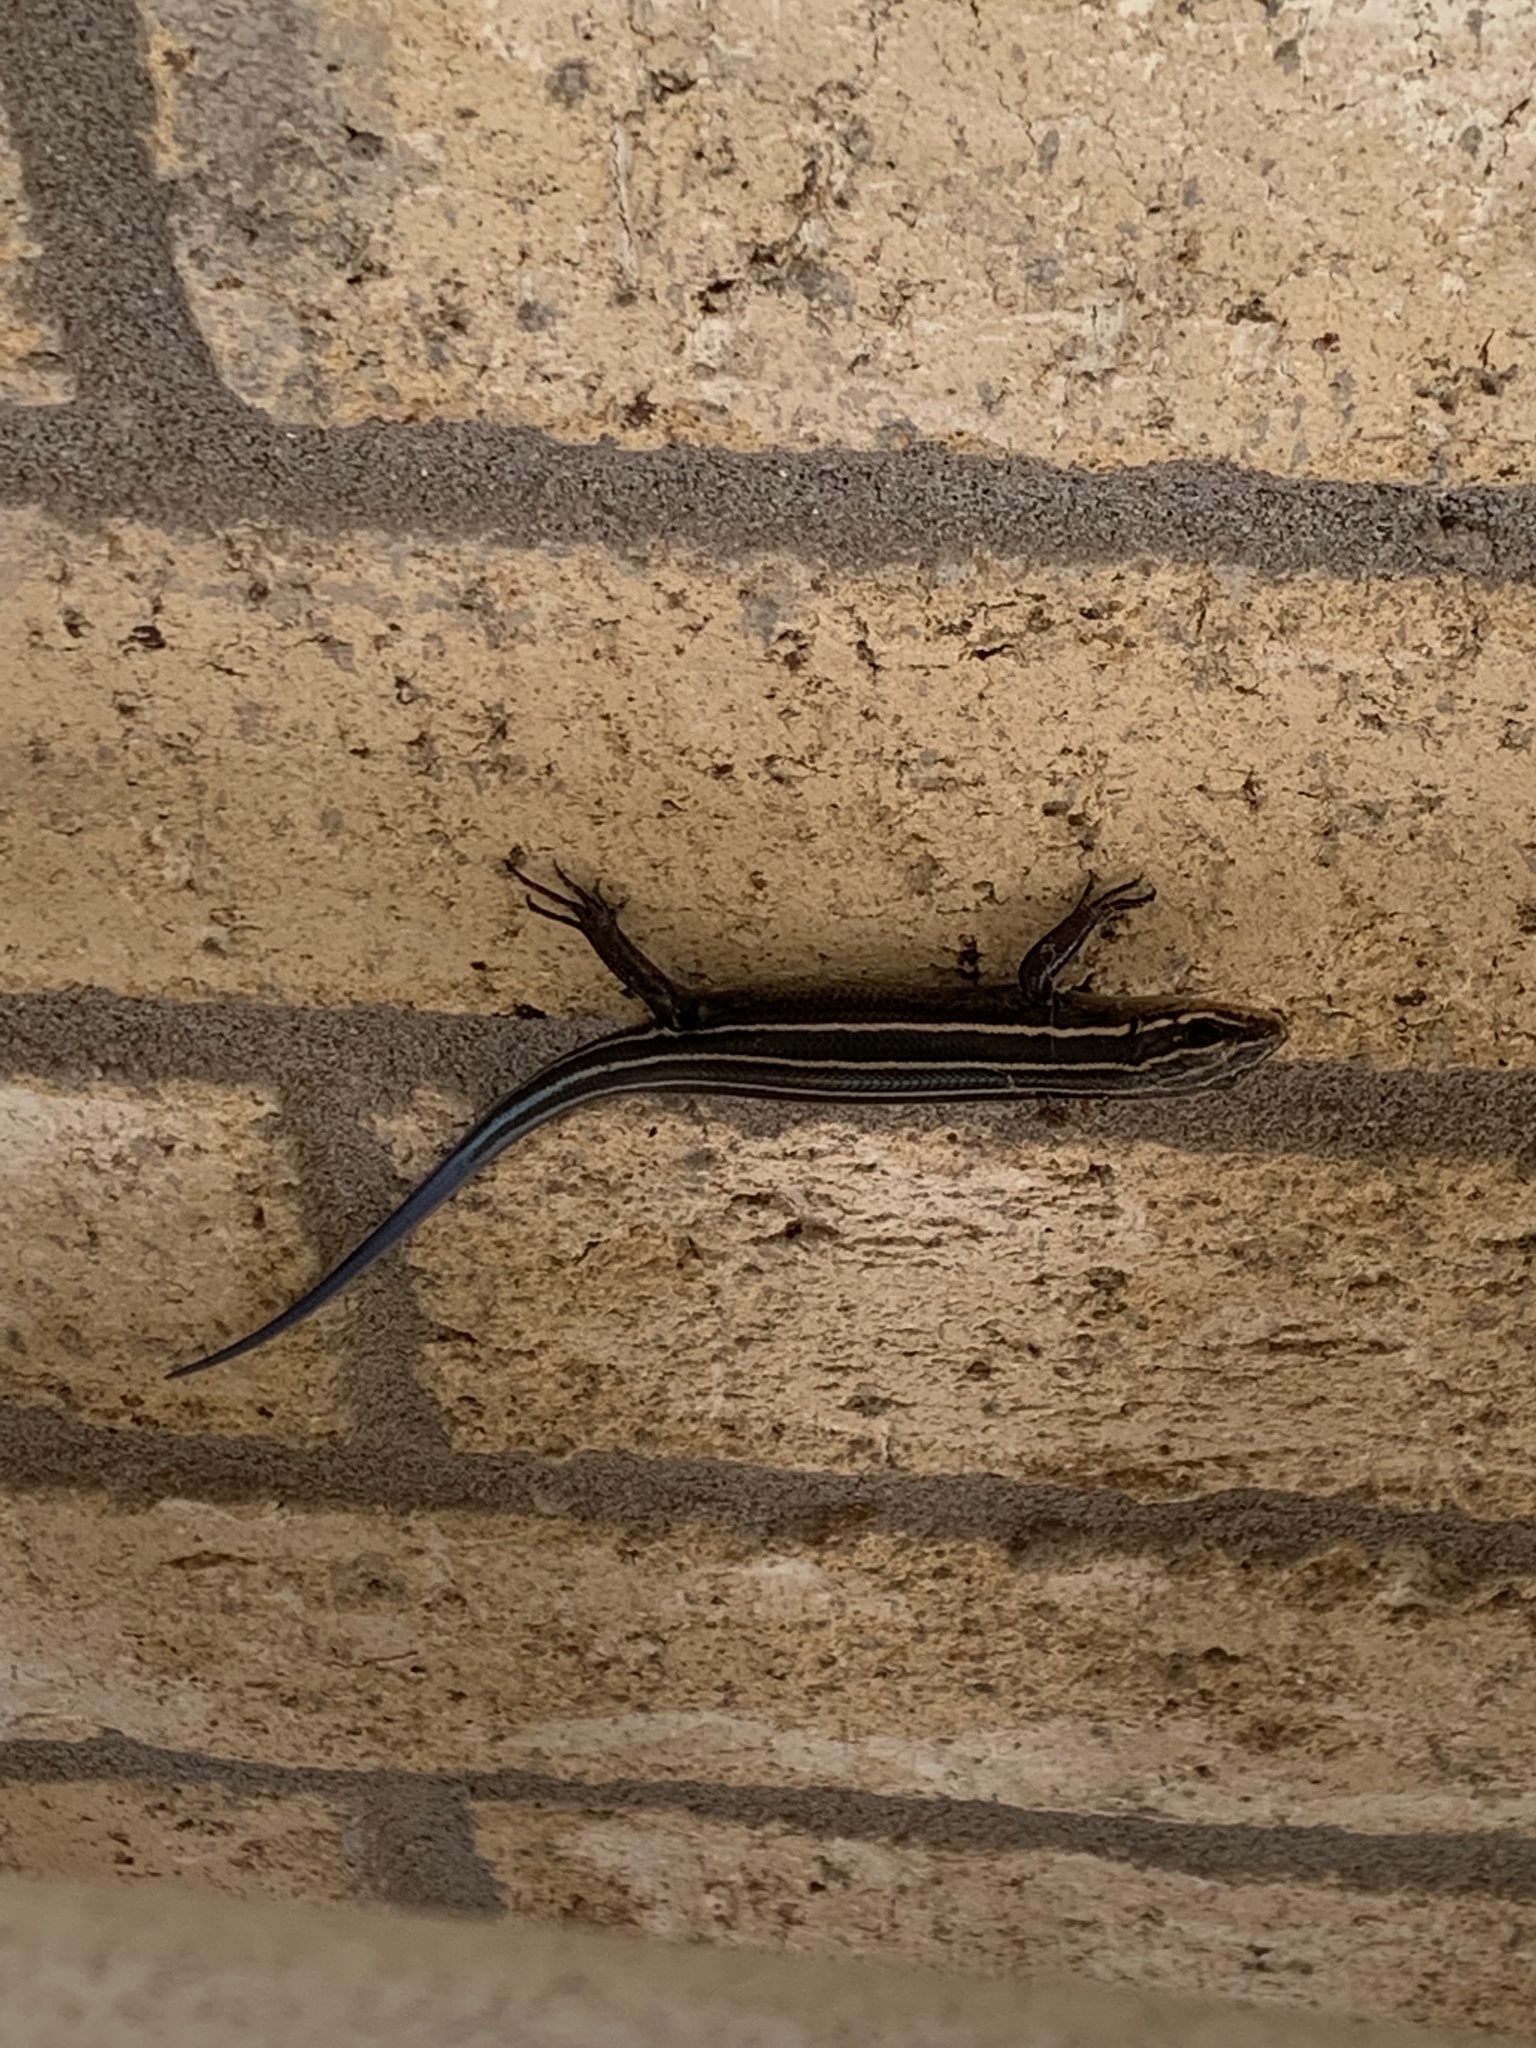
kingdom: Animalia
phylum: Chordata
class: Squamata
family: Scincidae
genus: Plestiodon
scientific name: Plestiodon laticeps
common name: Broadhead skink
